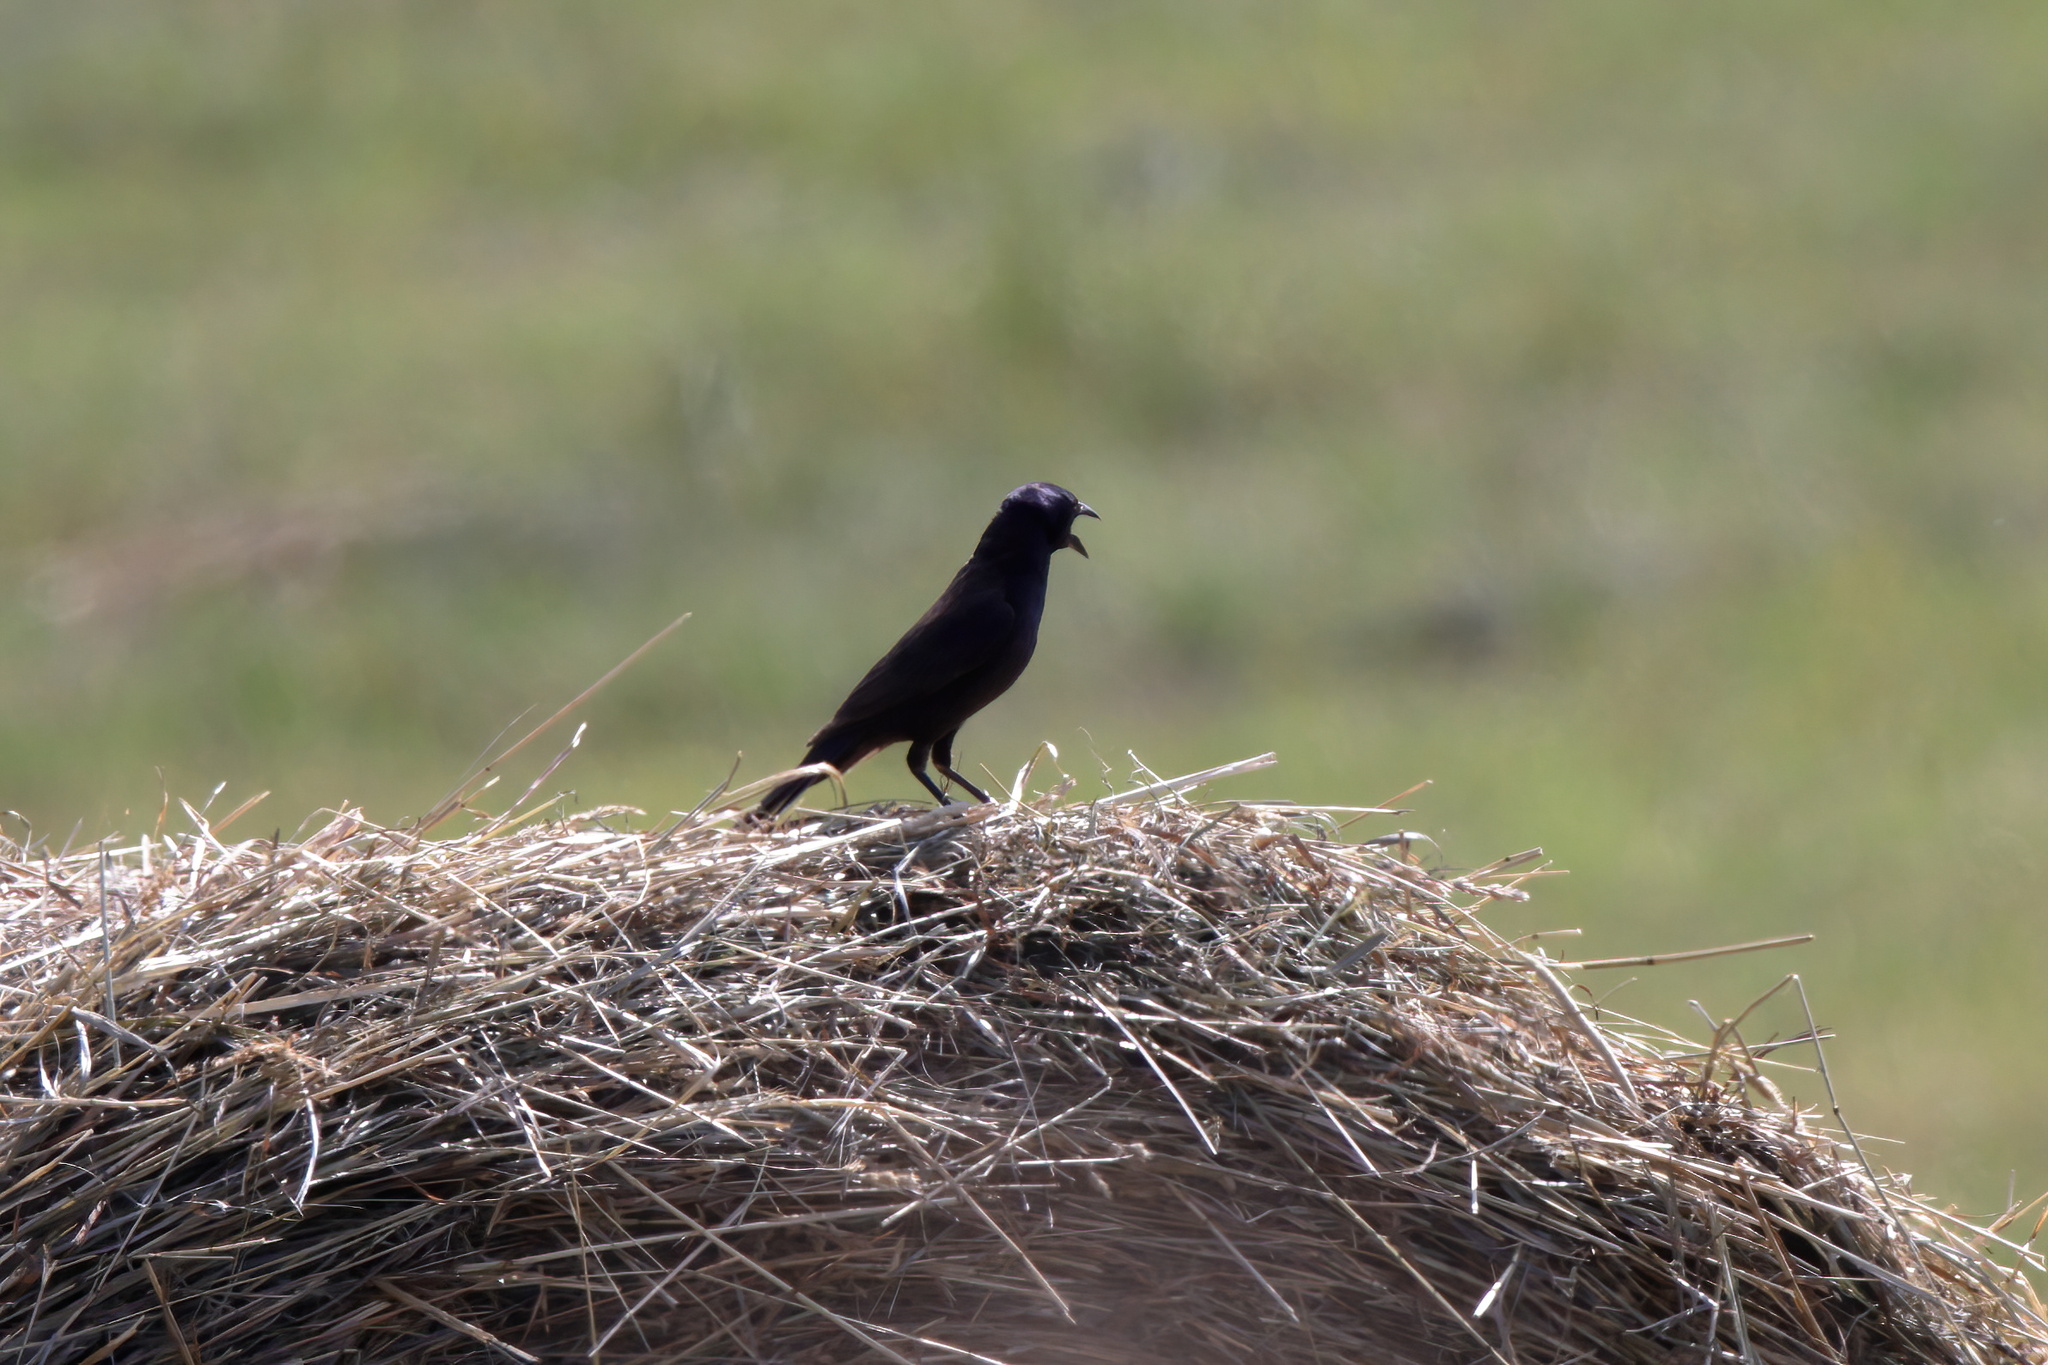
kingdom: Animalia
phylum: Chordata
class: Aves
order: Passeriformes
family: Icteridae
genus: Quiscalus
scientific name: Quiscalus quiscula
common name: Common grackle
